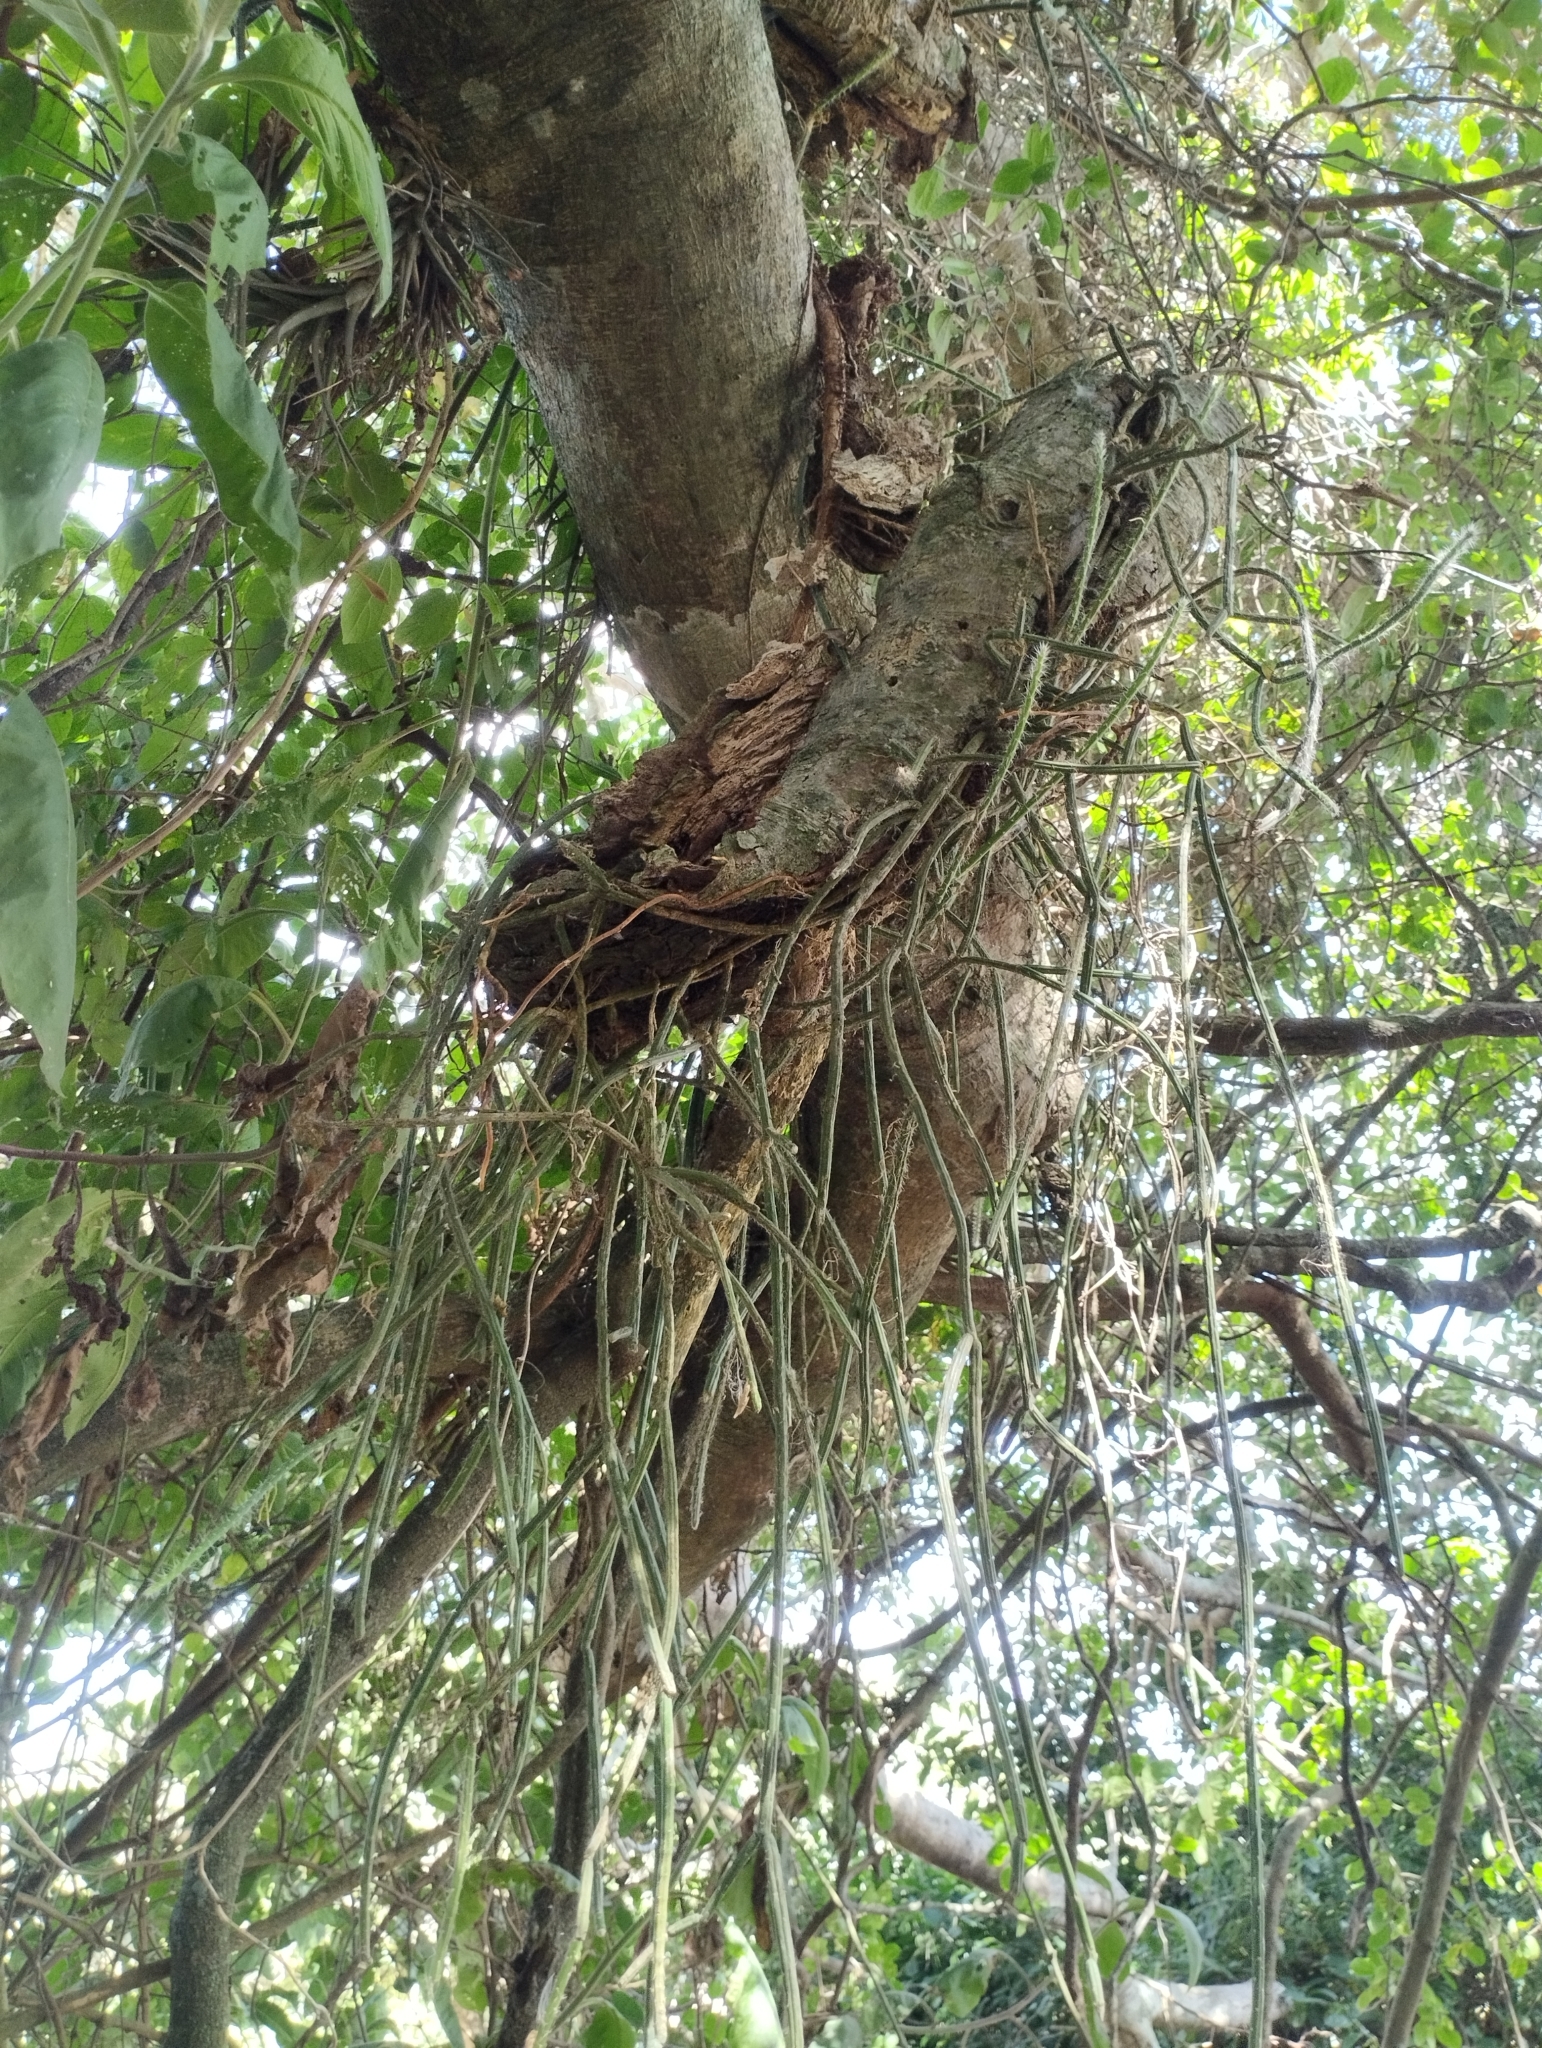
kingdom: Plantae
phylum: Tracheophyta
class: Magnoliopsida
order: Caryophyllales
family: Cactaceae
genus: Lepismium
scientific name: Lepismium lumbricoides
